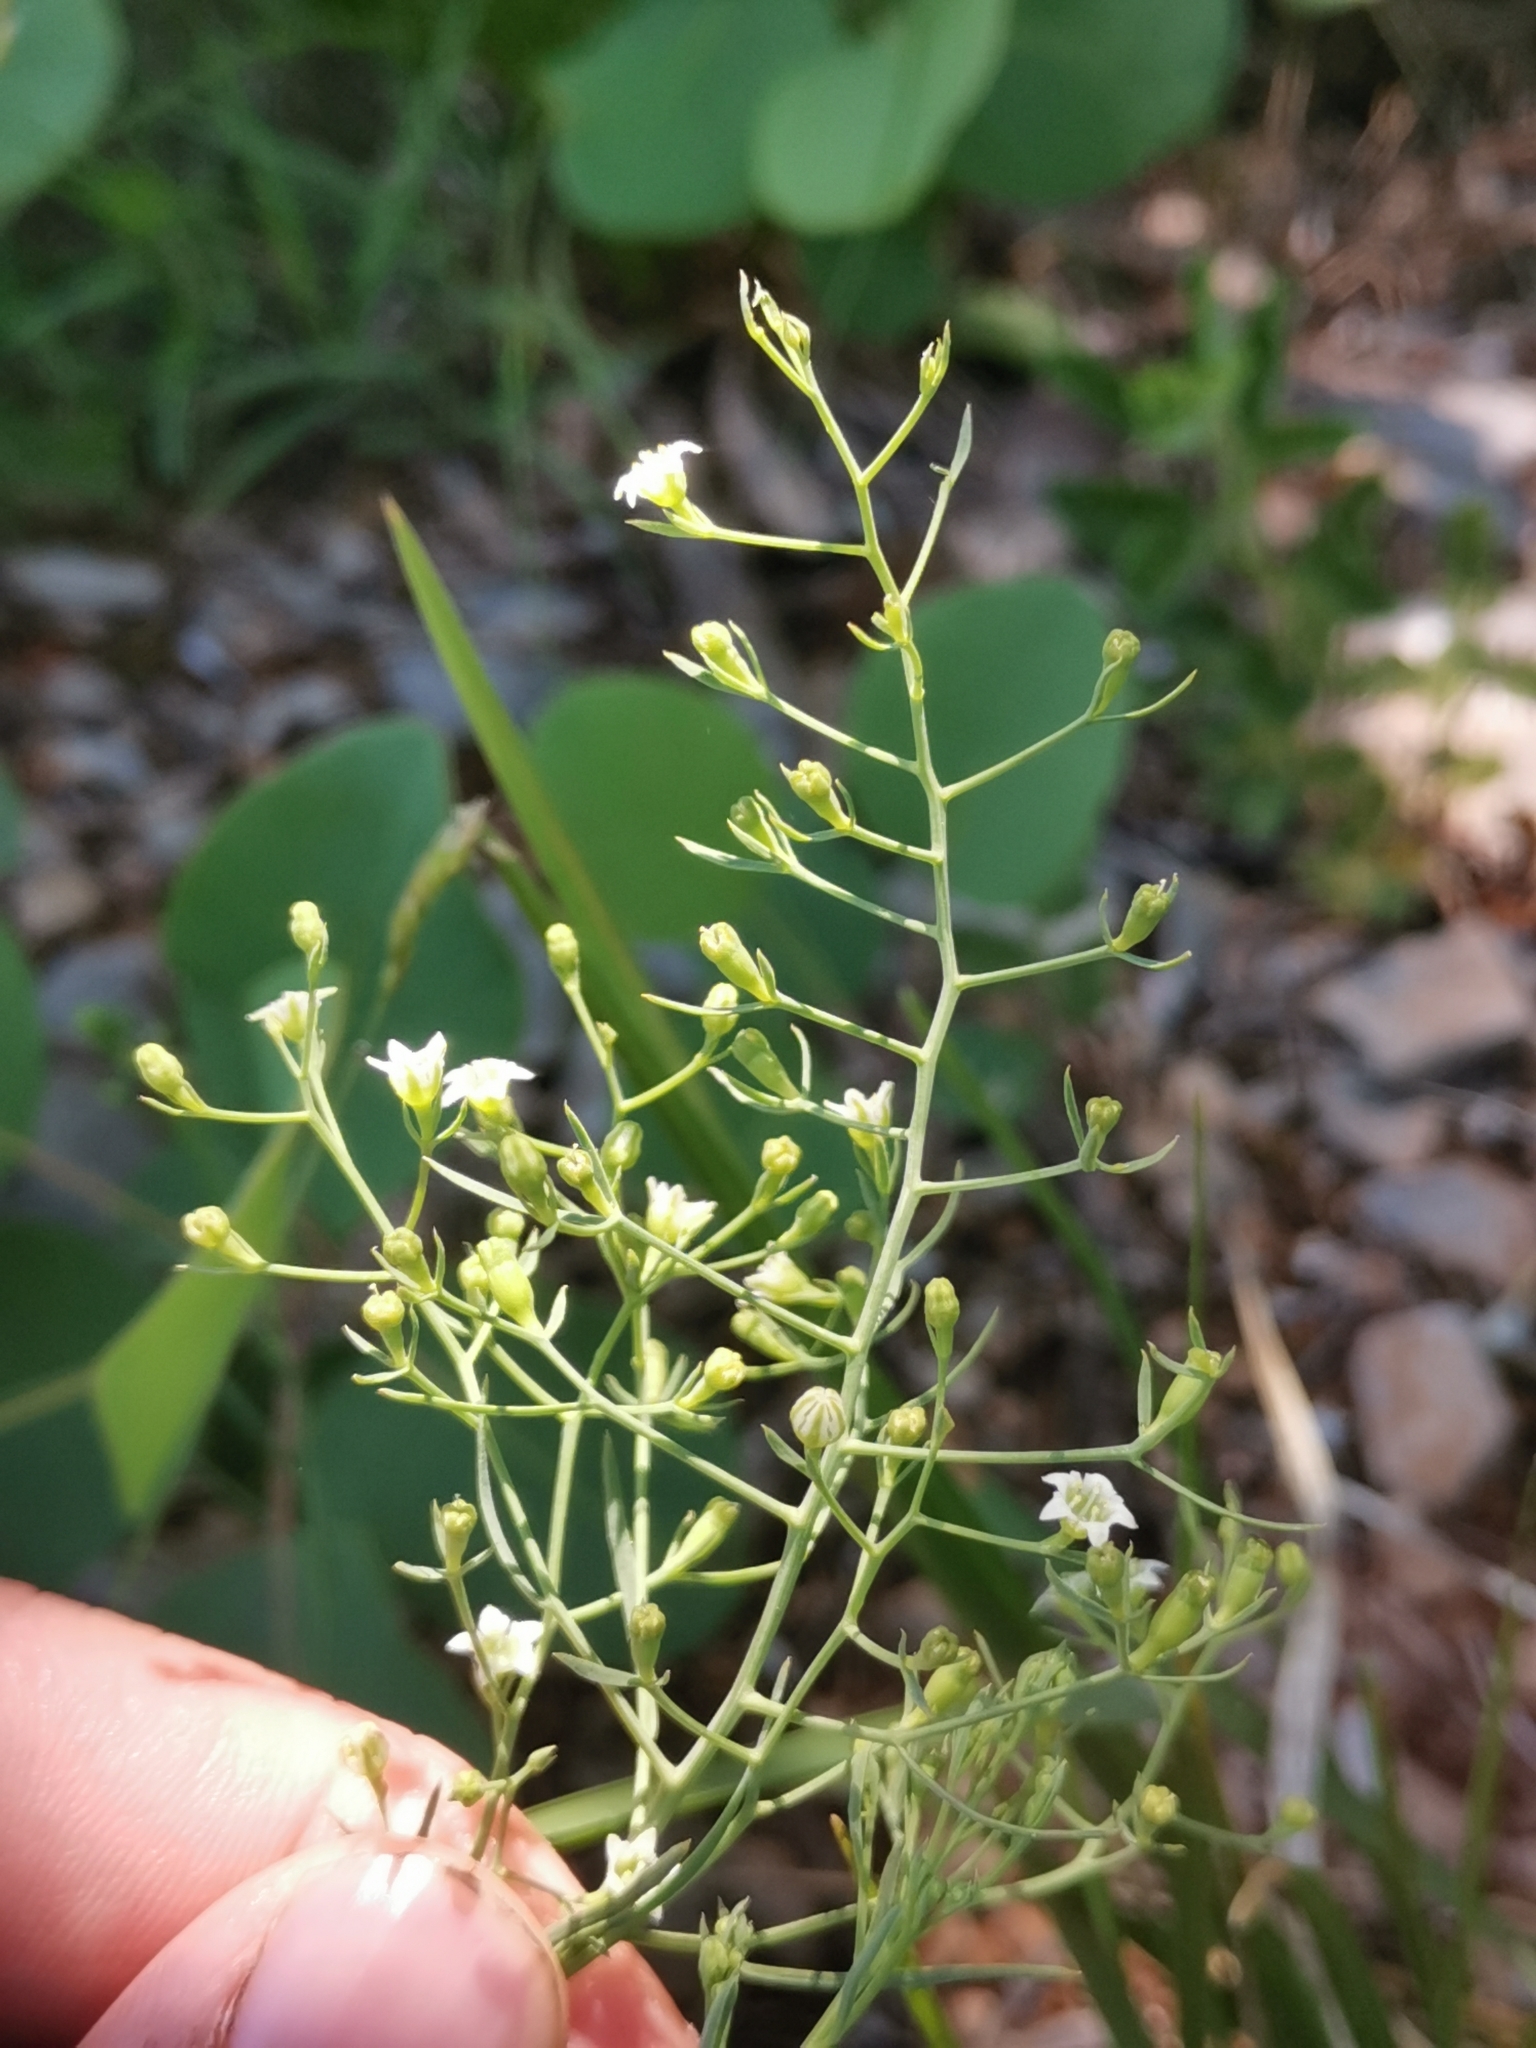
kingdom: Plantae
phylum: Tracheophyta
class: Magnoliopsida
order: Santalales
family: Thesiaceae
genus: Thesium
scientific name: Thesium divaricatum
